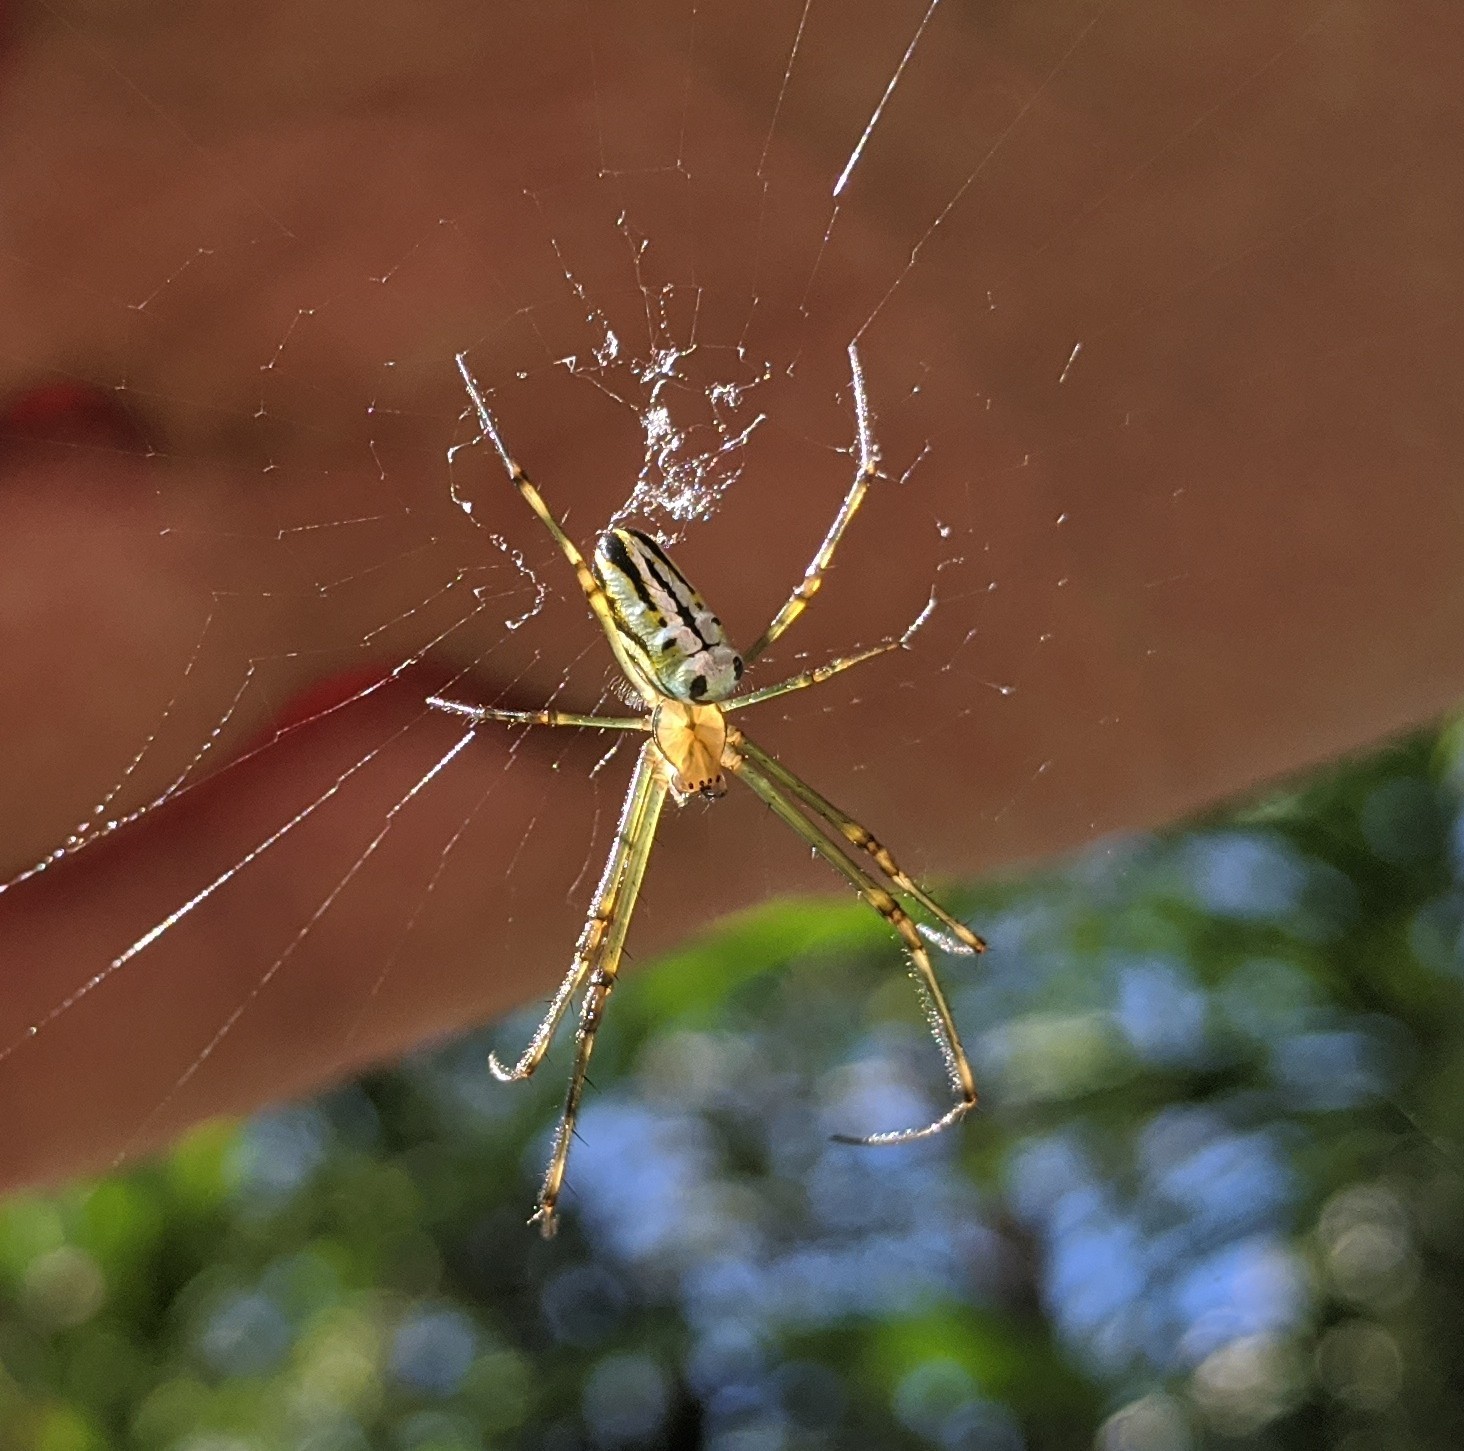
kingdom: Animalia
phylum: Arthropoda
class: Arachnida
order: Araneae
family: Tetragnathidae
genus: Leucauge
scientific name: Leucauge dromedaria
